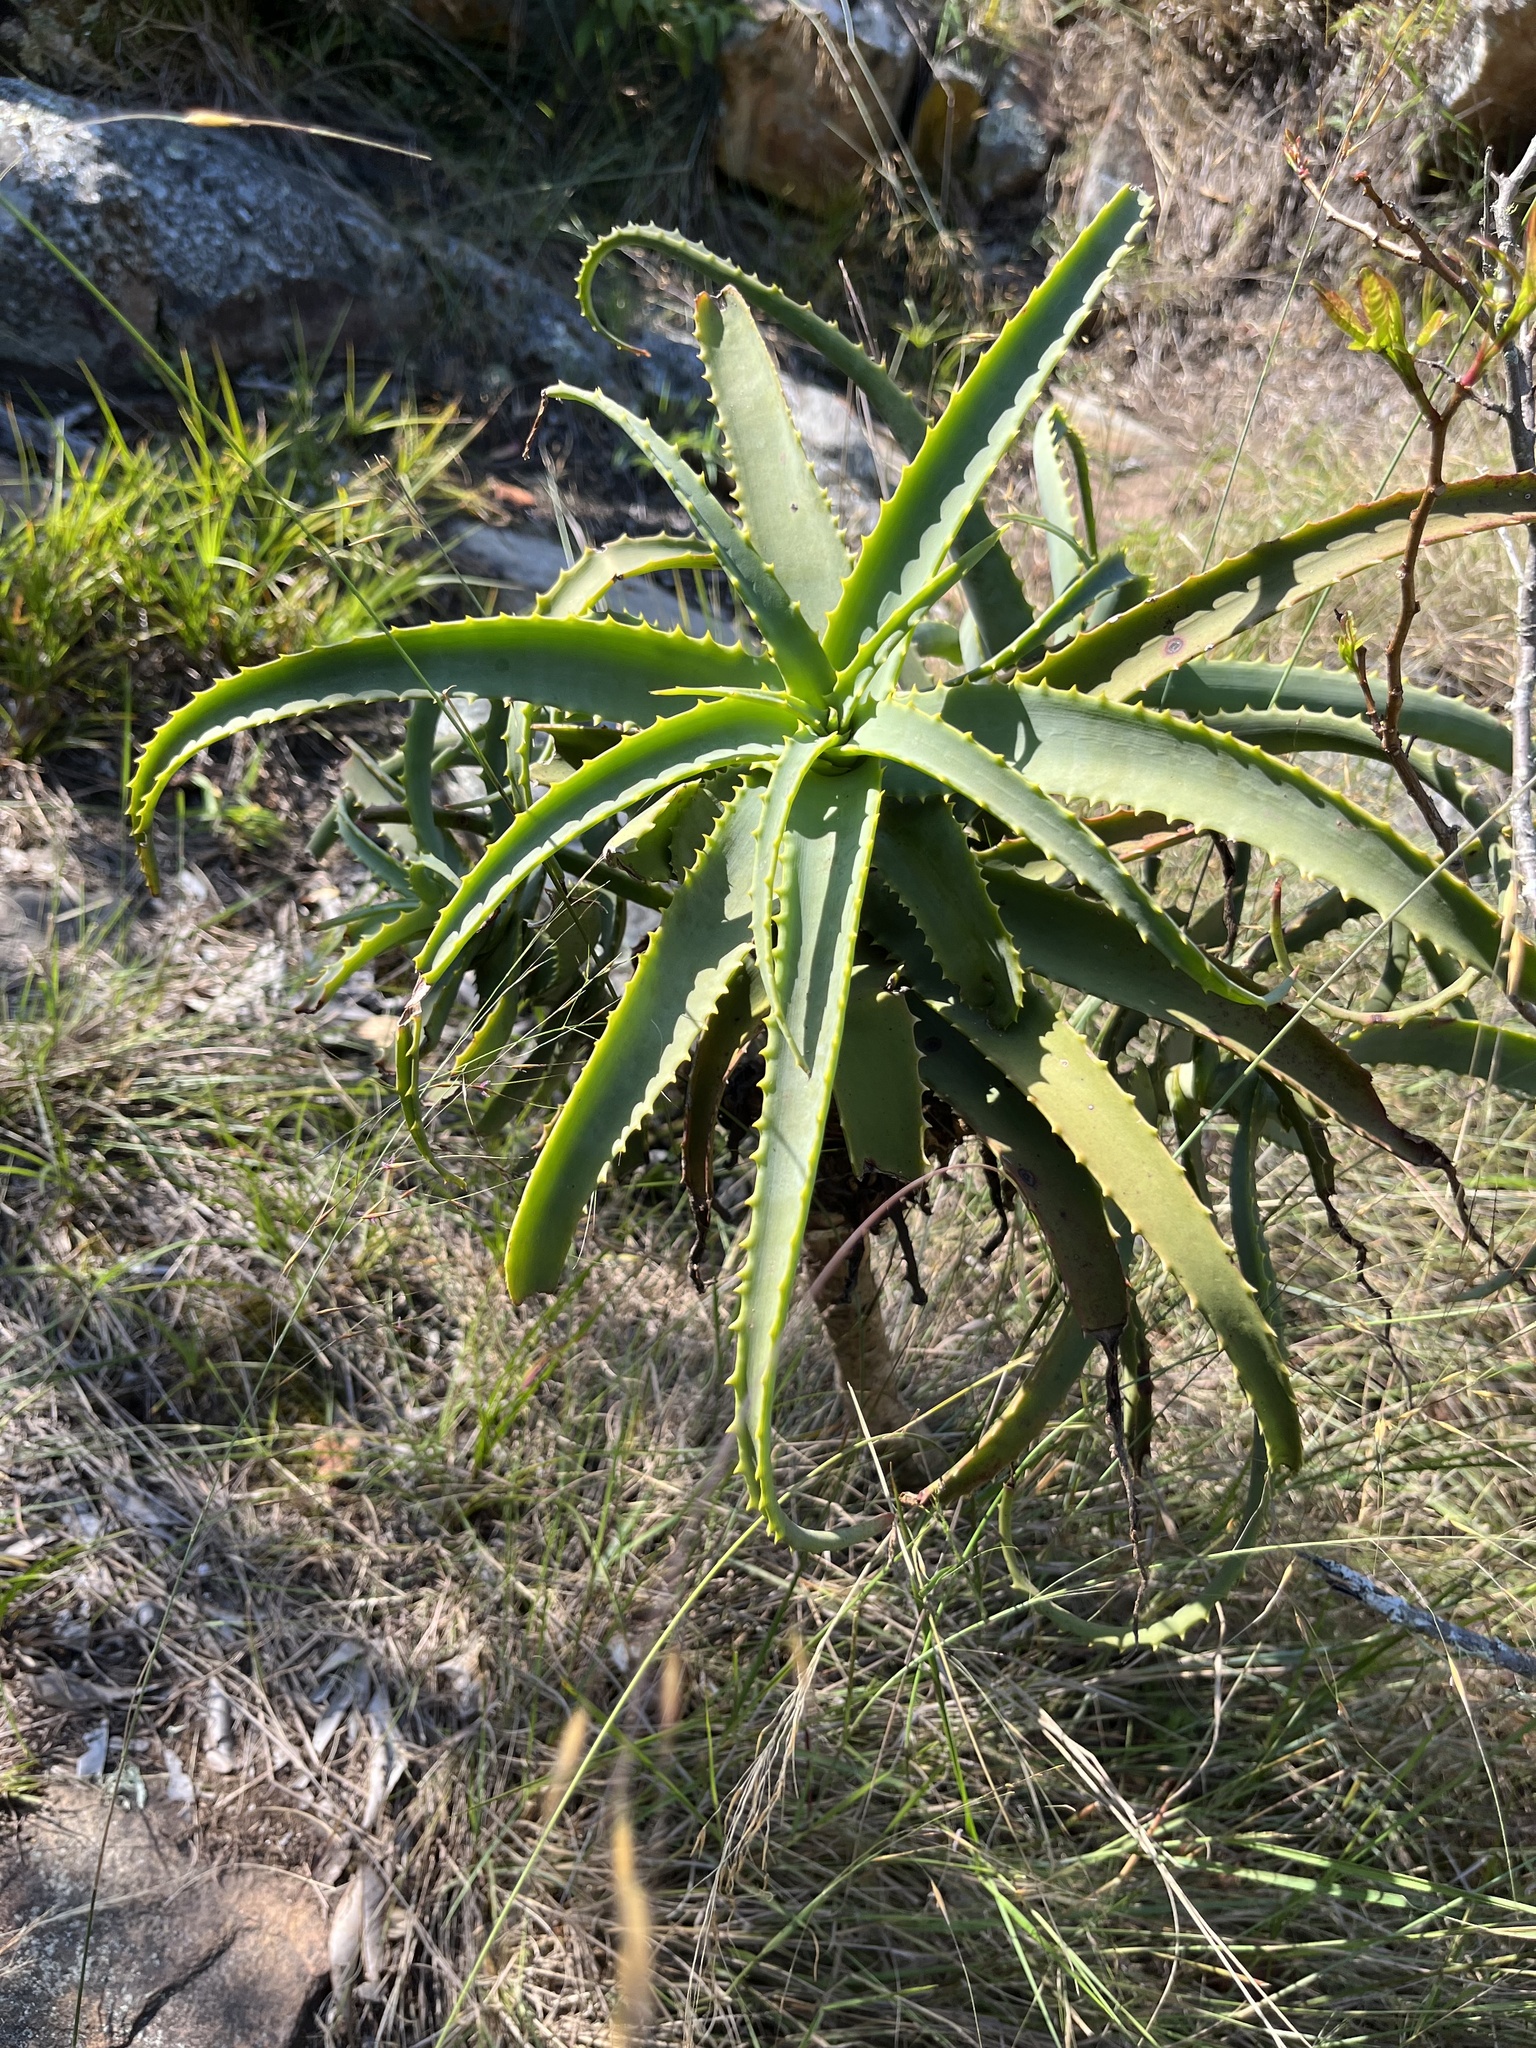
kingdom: Plantae
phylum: Tracheophyta
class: Liliopsida
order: Asparagales
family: Asphodelaceae
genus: Aloe
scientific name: Aloe arborescens
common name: Candelabra aloe
